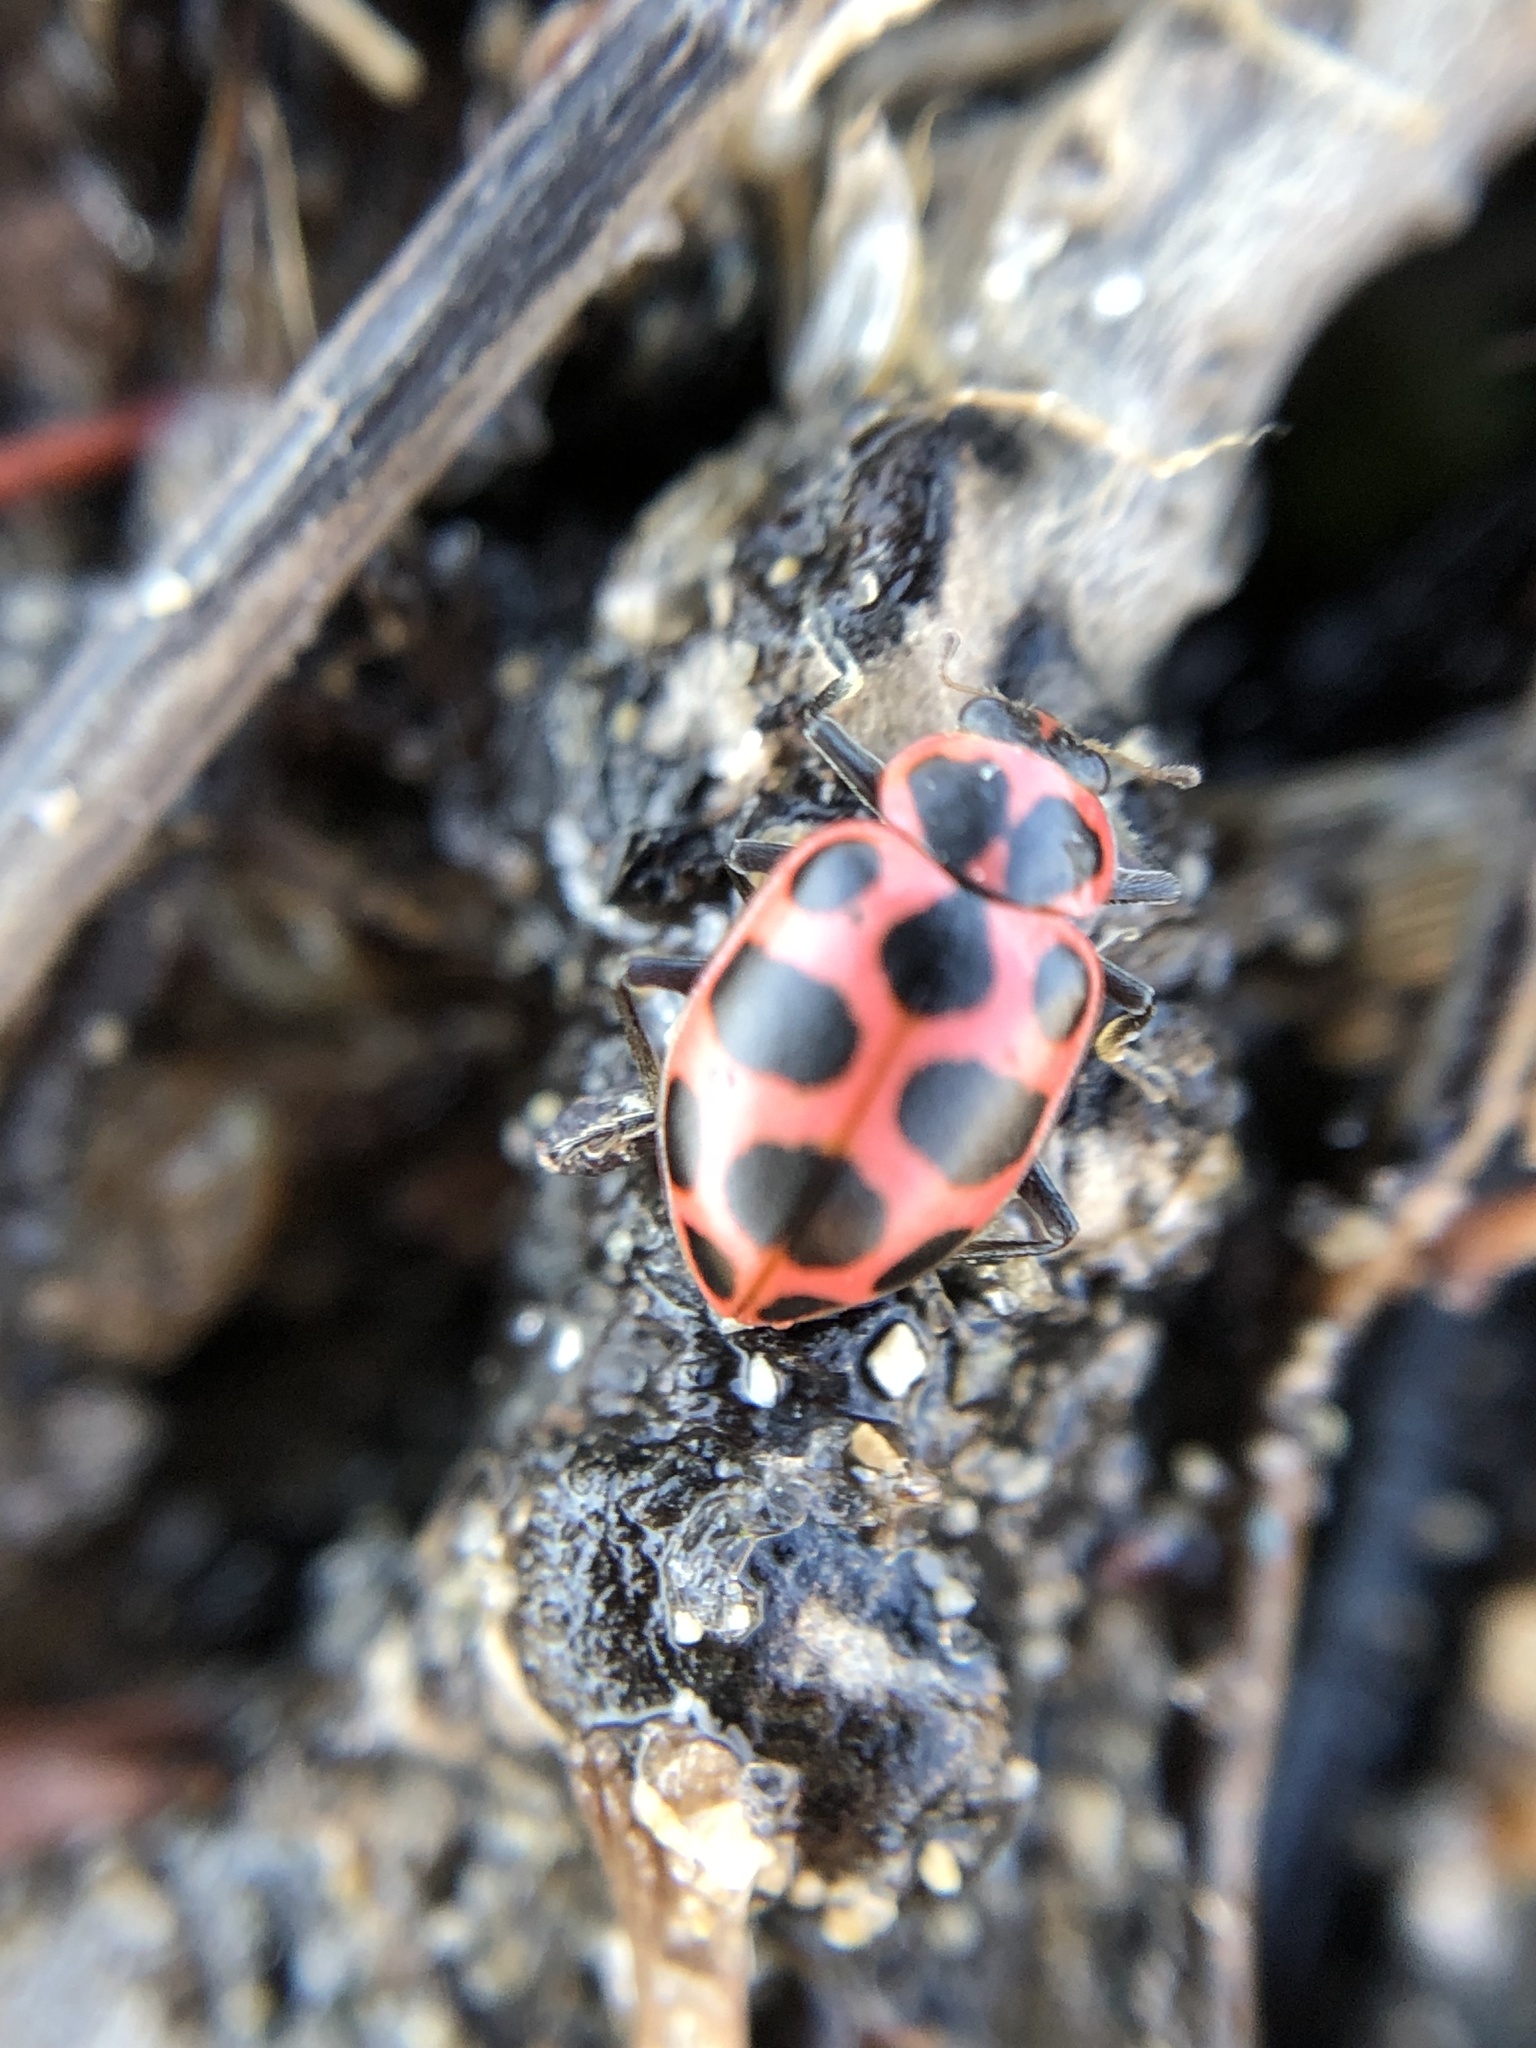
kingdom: Animalia
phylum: Arthropoda
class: Insecta
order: Coleoptera
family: Coccinellidae
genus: Coleomegilla
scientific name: Coleomegilla maculata
